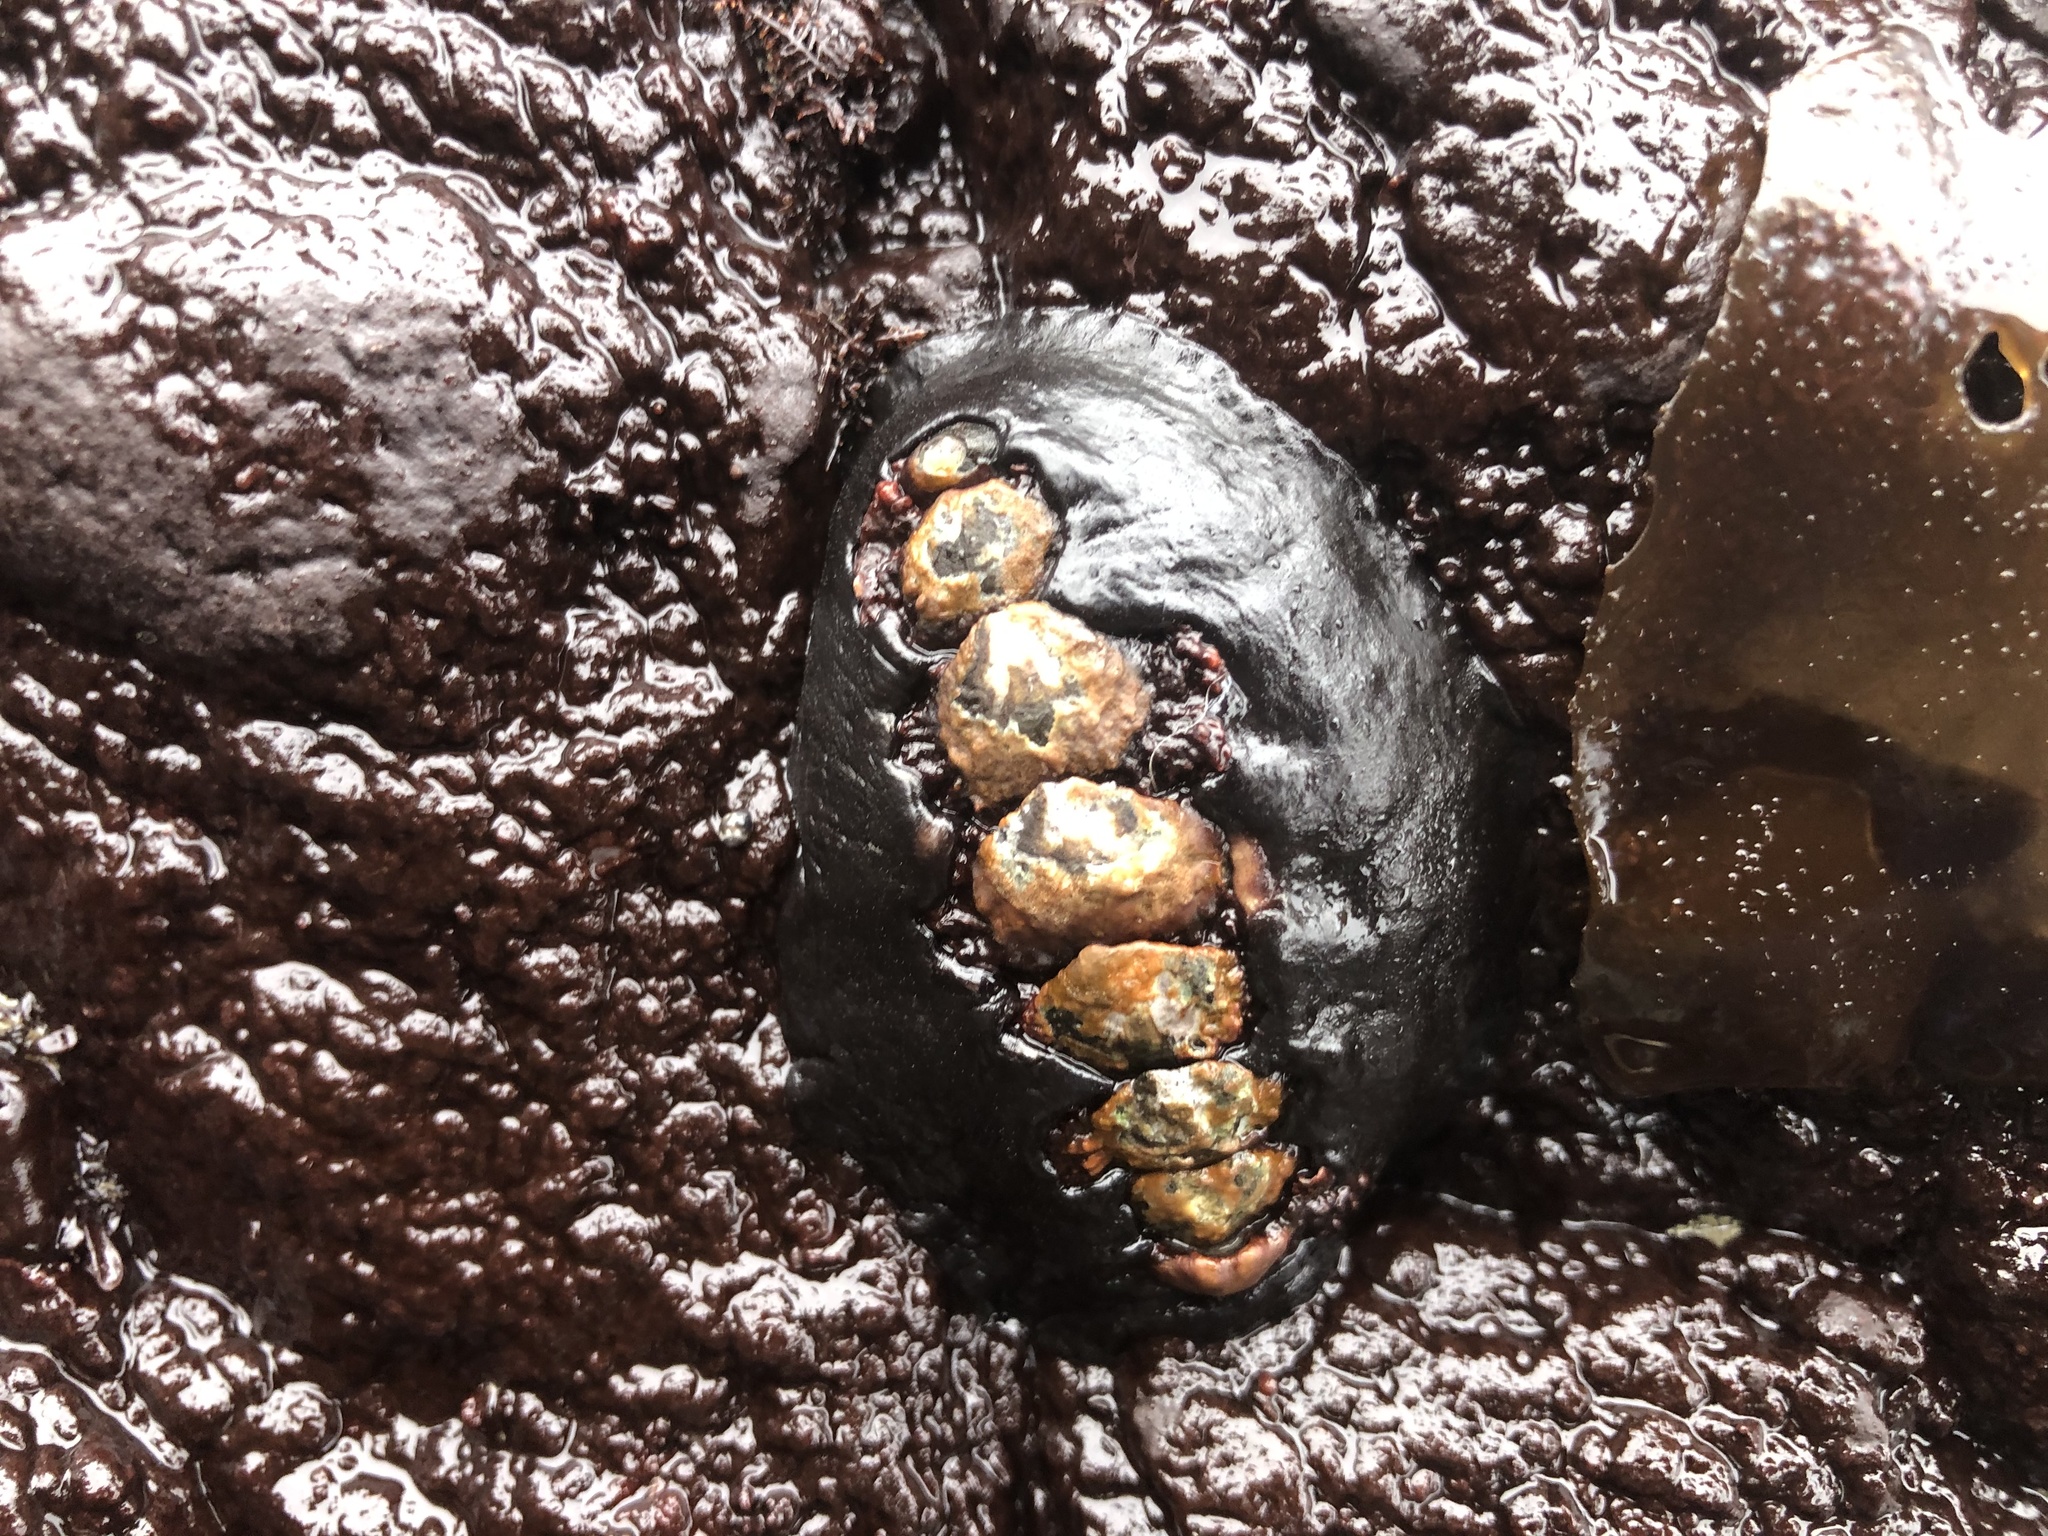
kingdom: Animalia
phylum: Mollusca
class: Polyplacophora
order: Chitonida
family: Mopaliidae
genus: Katharina
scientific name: Katharina tunicata
